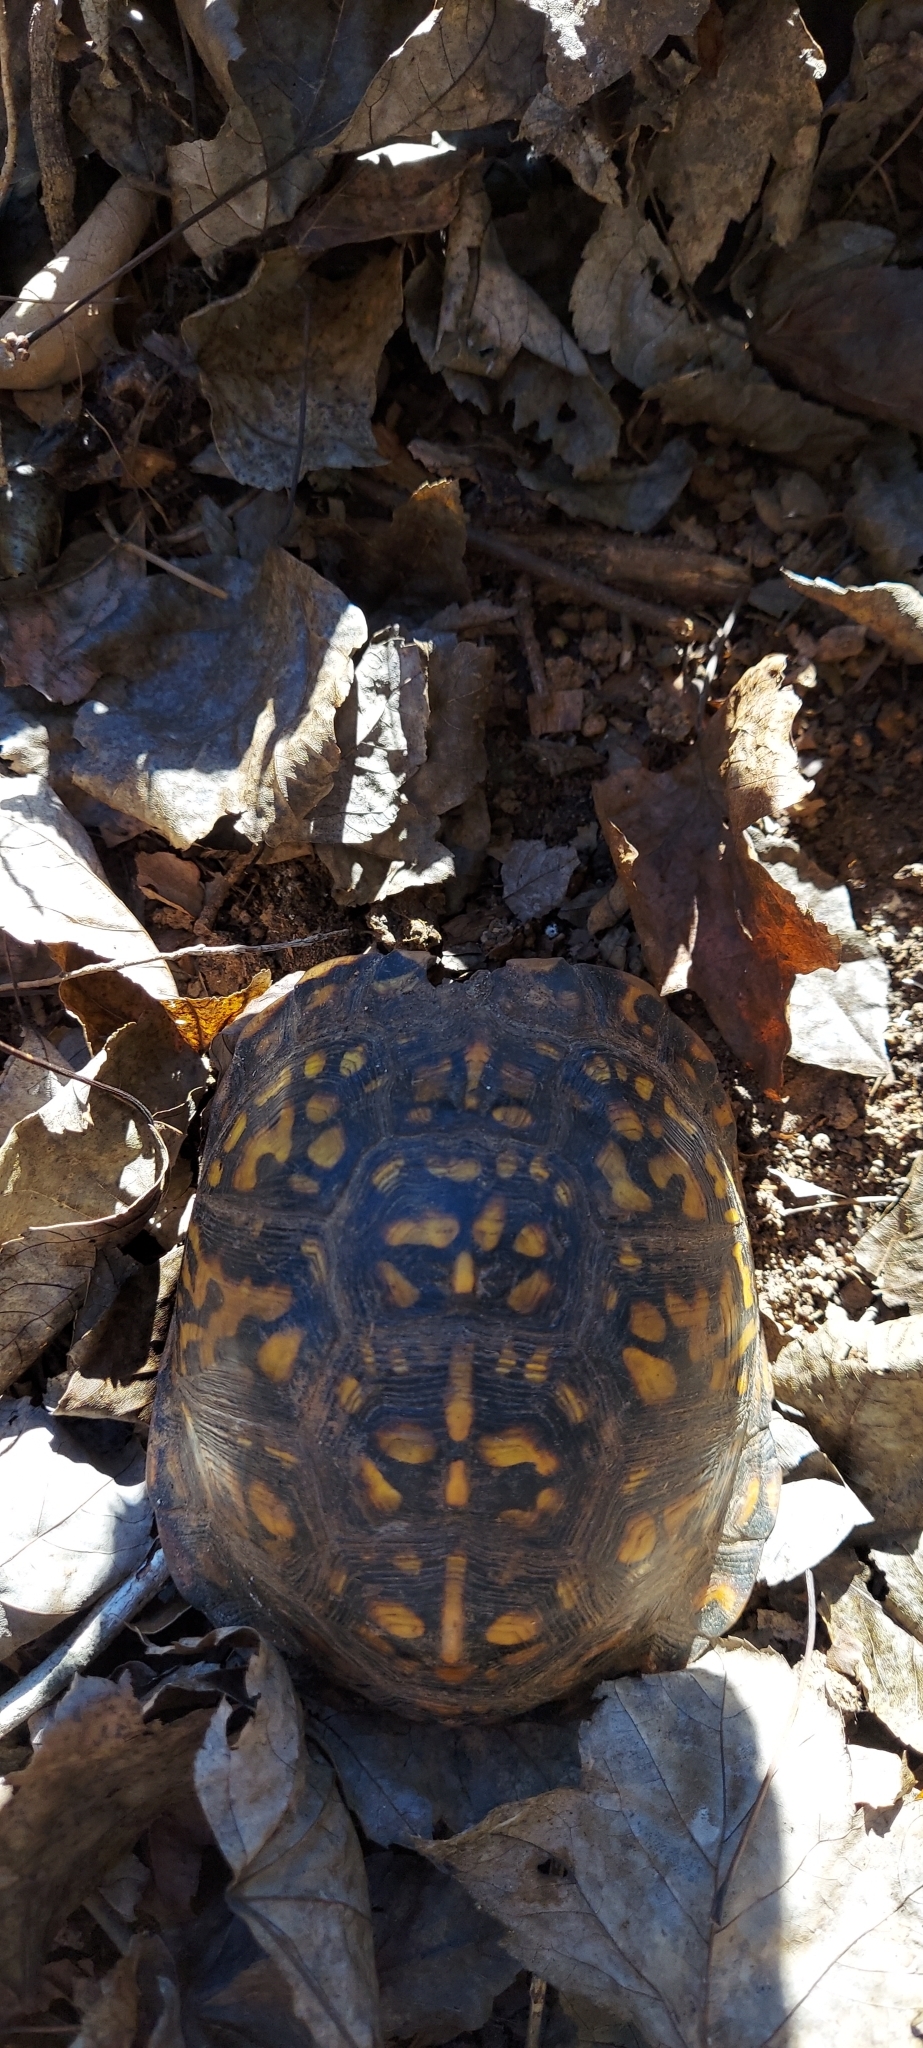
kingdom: Animalia
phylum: Chordata
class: Testudines
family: Emydidae
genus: Terrapene
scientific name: Terrapene carolina
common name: Common box turtle
